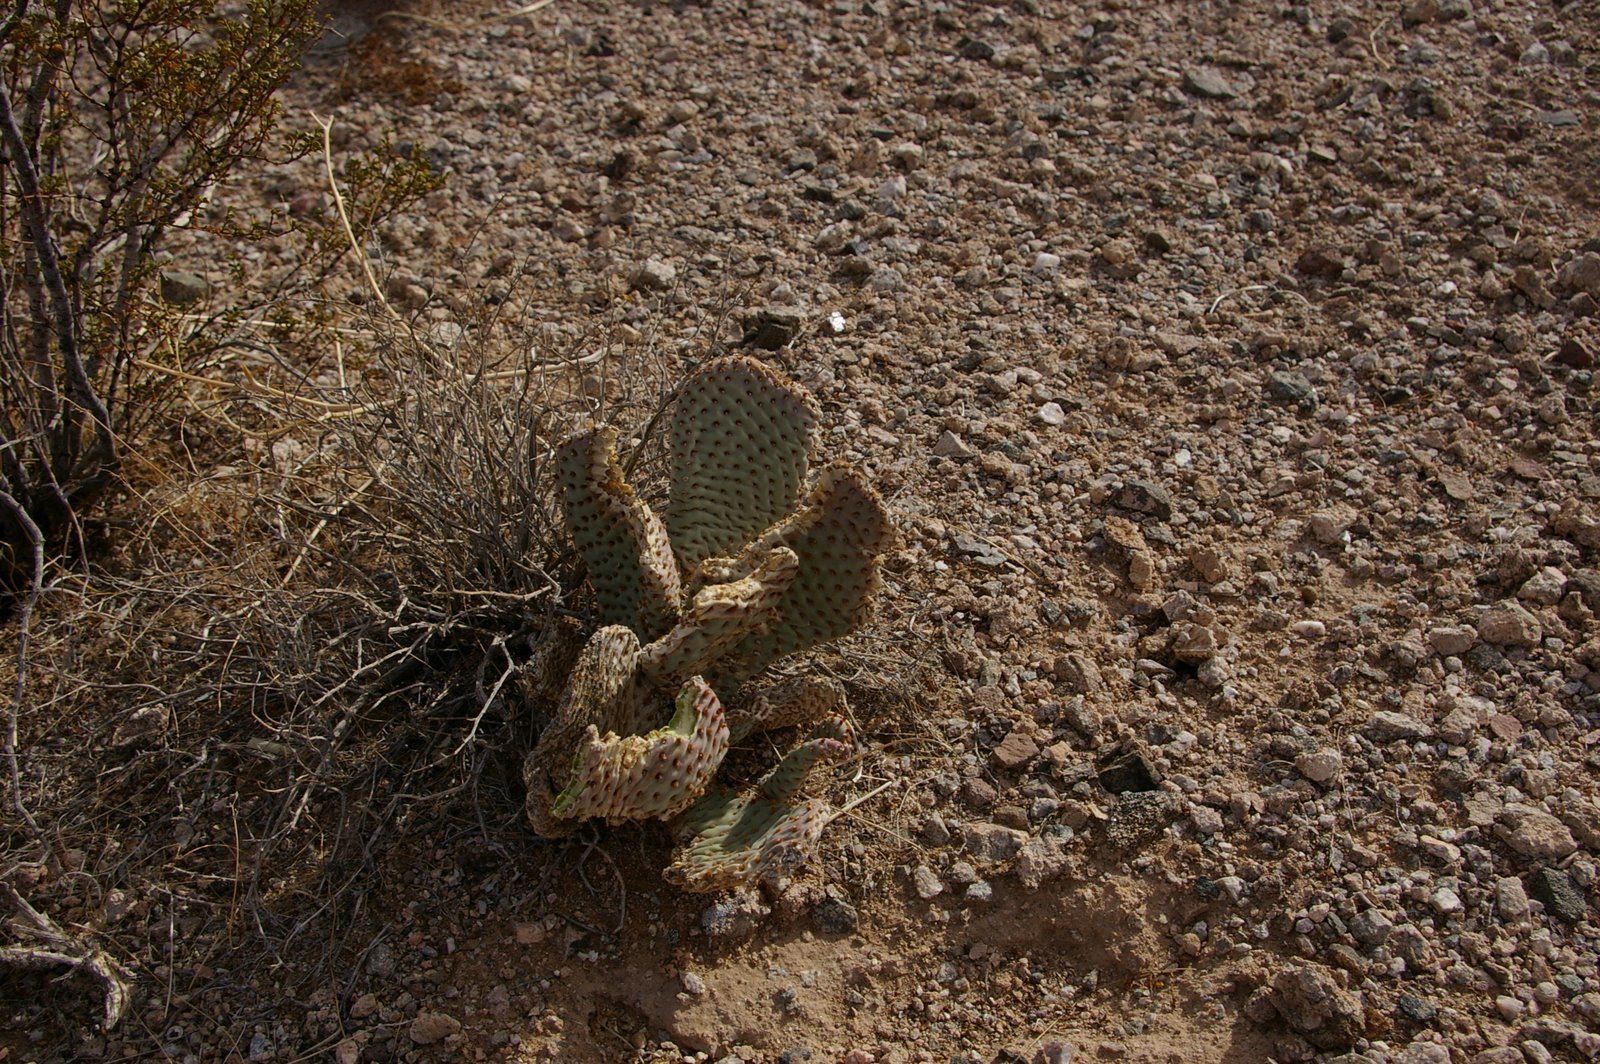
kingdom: Plantae
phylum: Tracheophyta
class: Magnoliopsida
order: Caryophyllales
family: Cactaceae
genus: Opuntia
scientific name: Opuntia basilaris
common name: Beavertail prickly-pear
